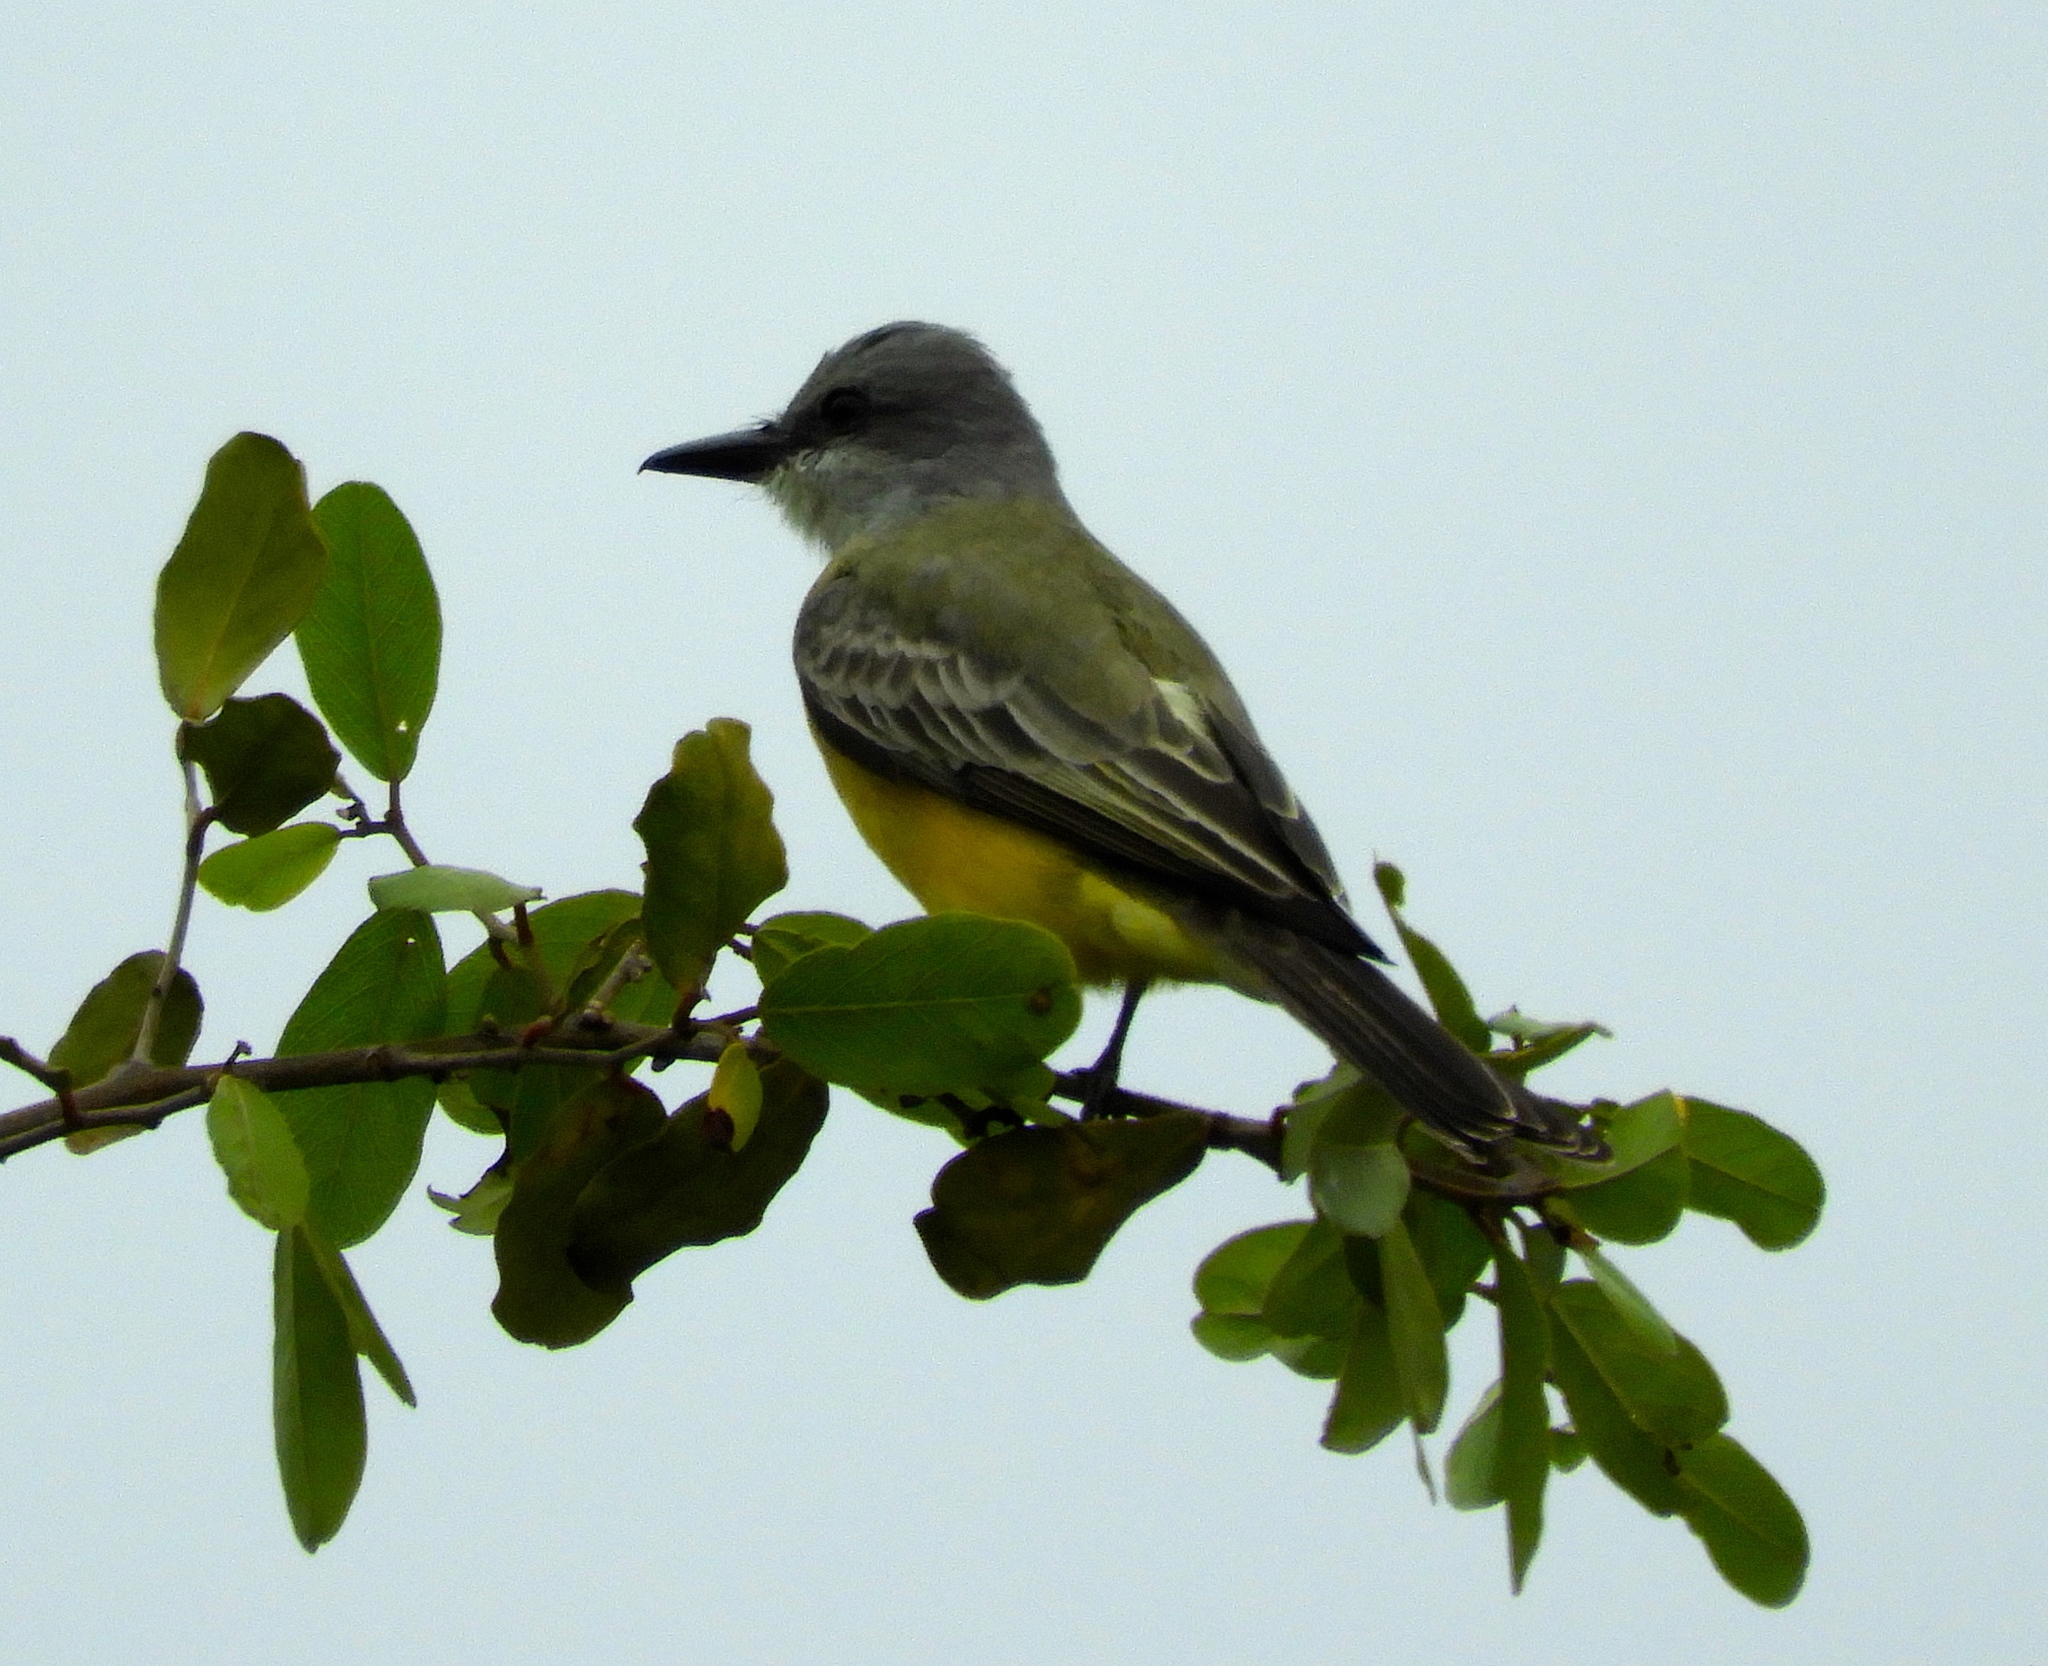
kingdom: Animalia
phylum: Chordata
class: Aves
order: Passeriformes
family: Tyrannidae
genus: Tyrannus
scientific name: Tyrannus melancholicus
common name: Tropical kingbird
